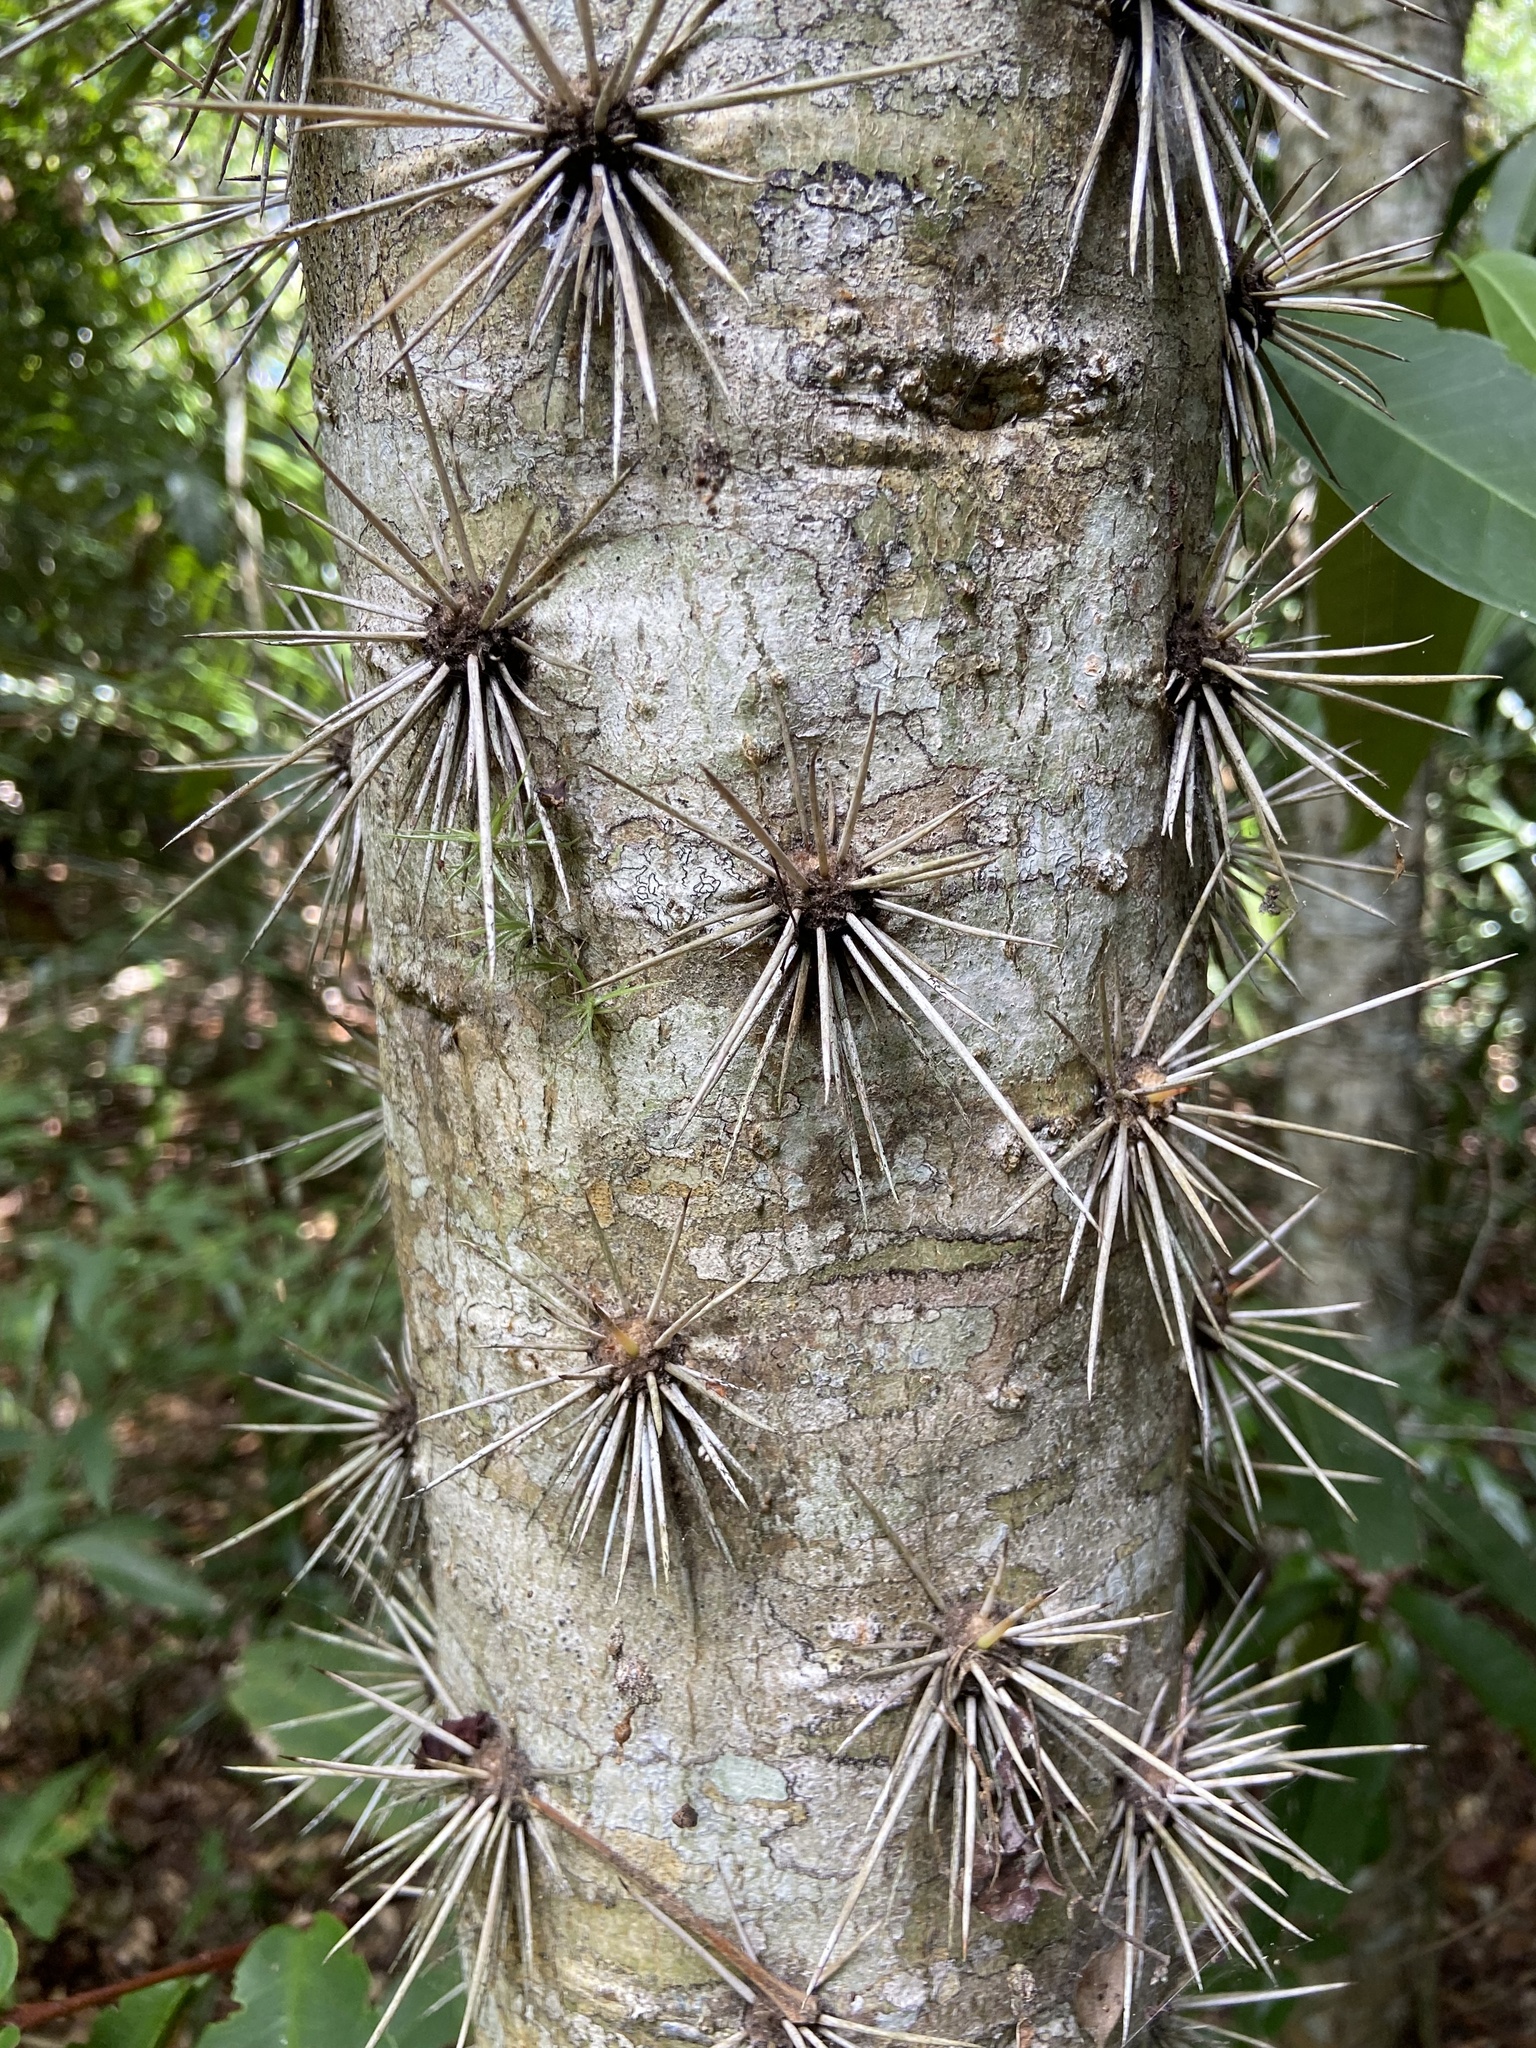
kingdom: Plantae
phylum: Tracheophyta
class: Magnoliopsida
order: Caryophyllales
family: Cactaceae
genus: Brasiliopuntia
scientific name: Brasiliopuntia brasiliensis
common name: Brazilian pricklypear
